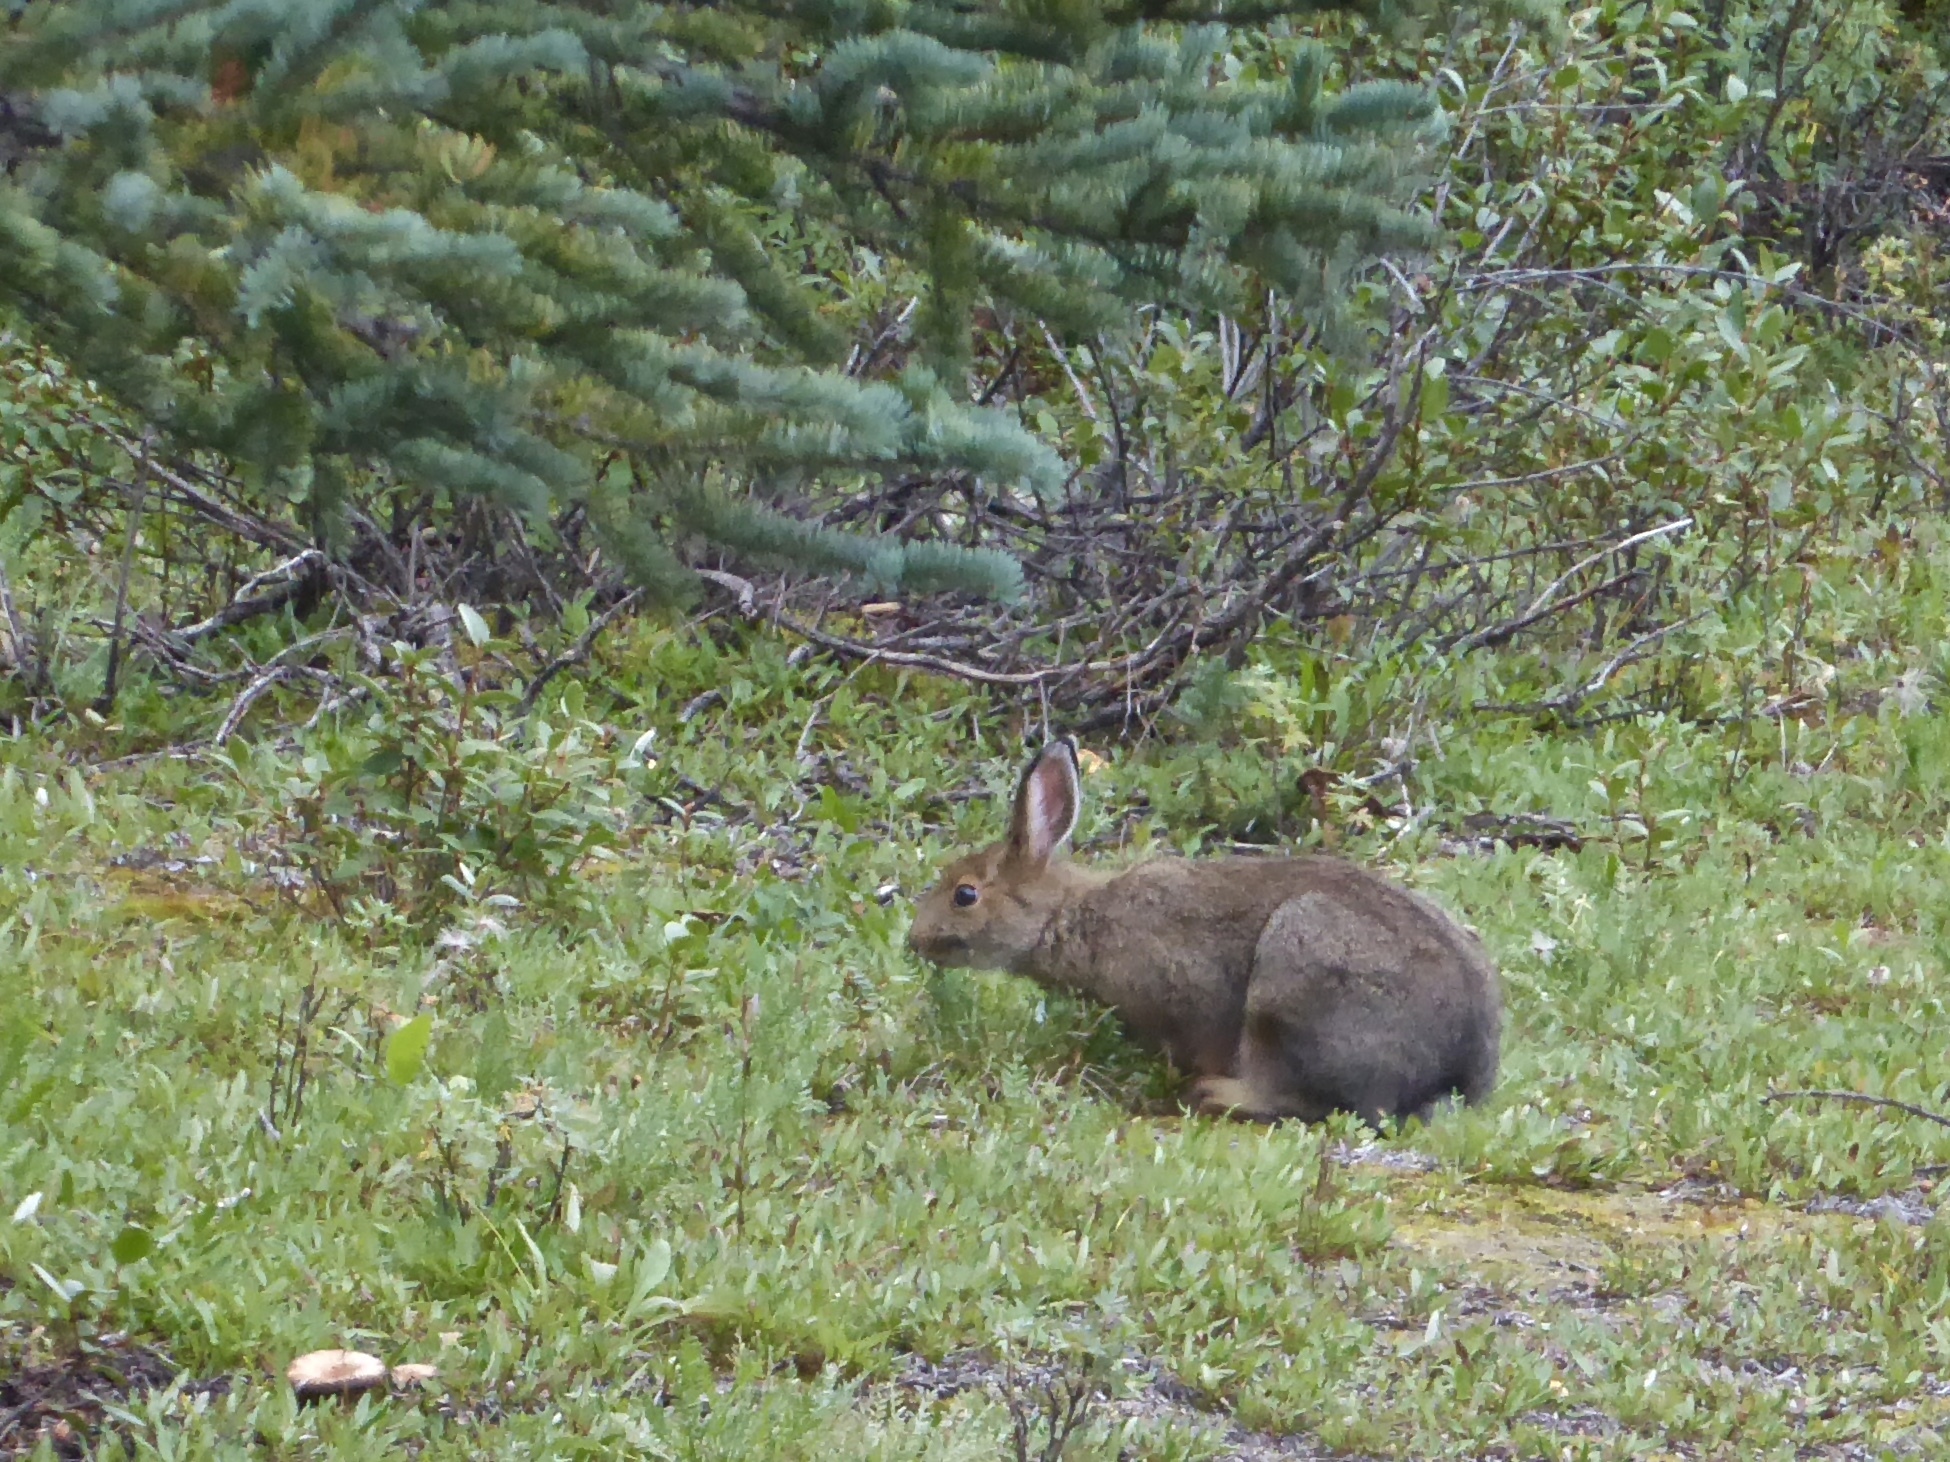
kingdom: Animalia
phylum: Chordata
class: Mammalia
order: Lagomorpha
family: Leporidae
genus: Lepus
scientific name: Lepus americanus
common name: Snowshoe hare
